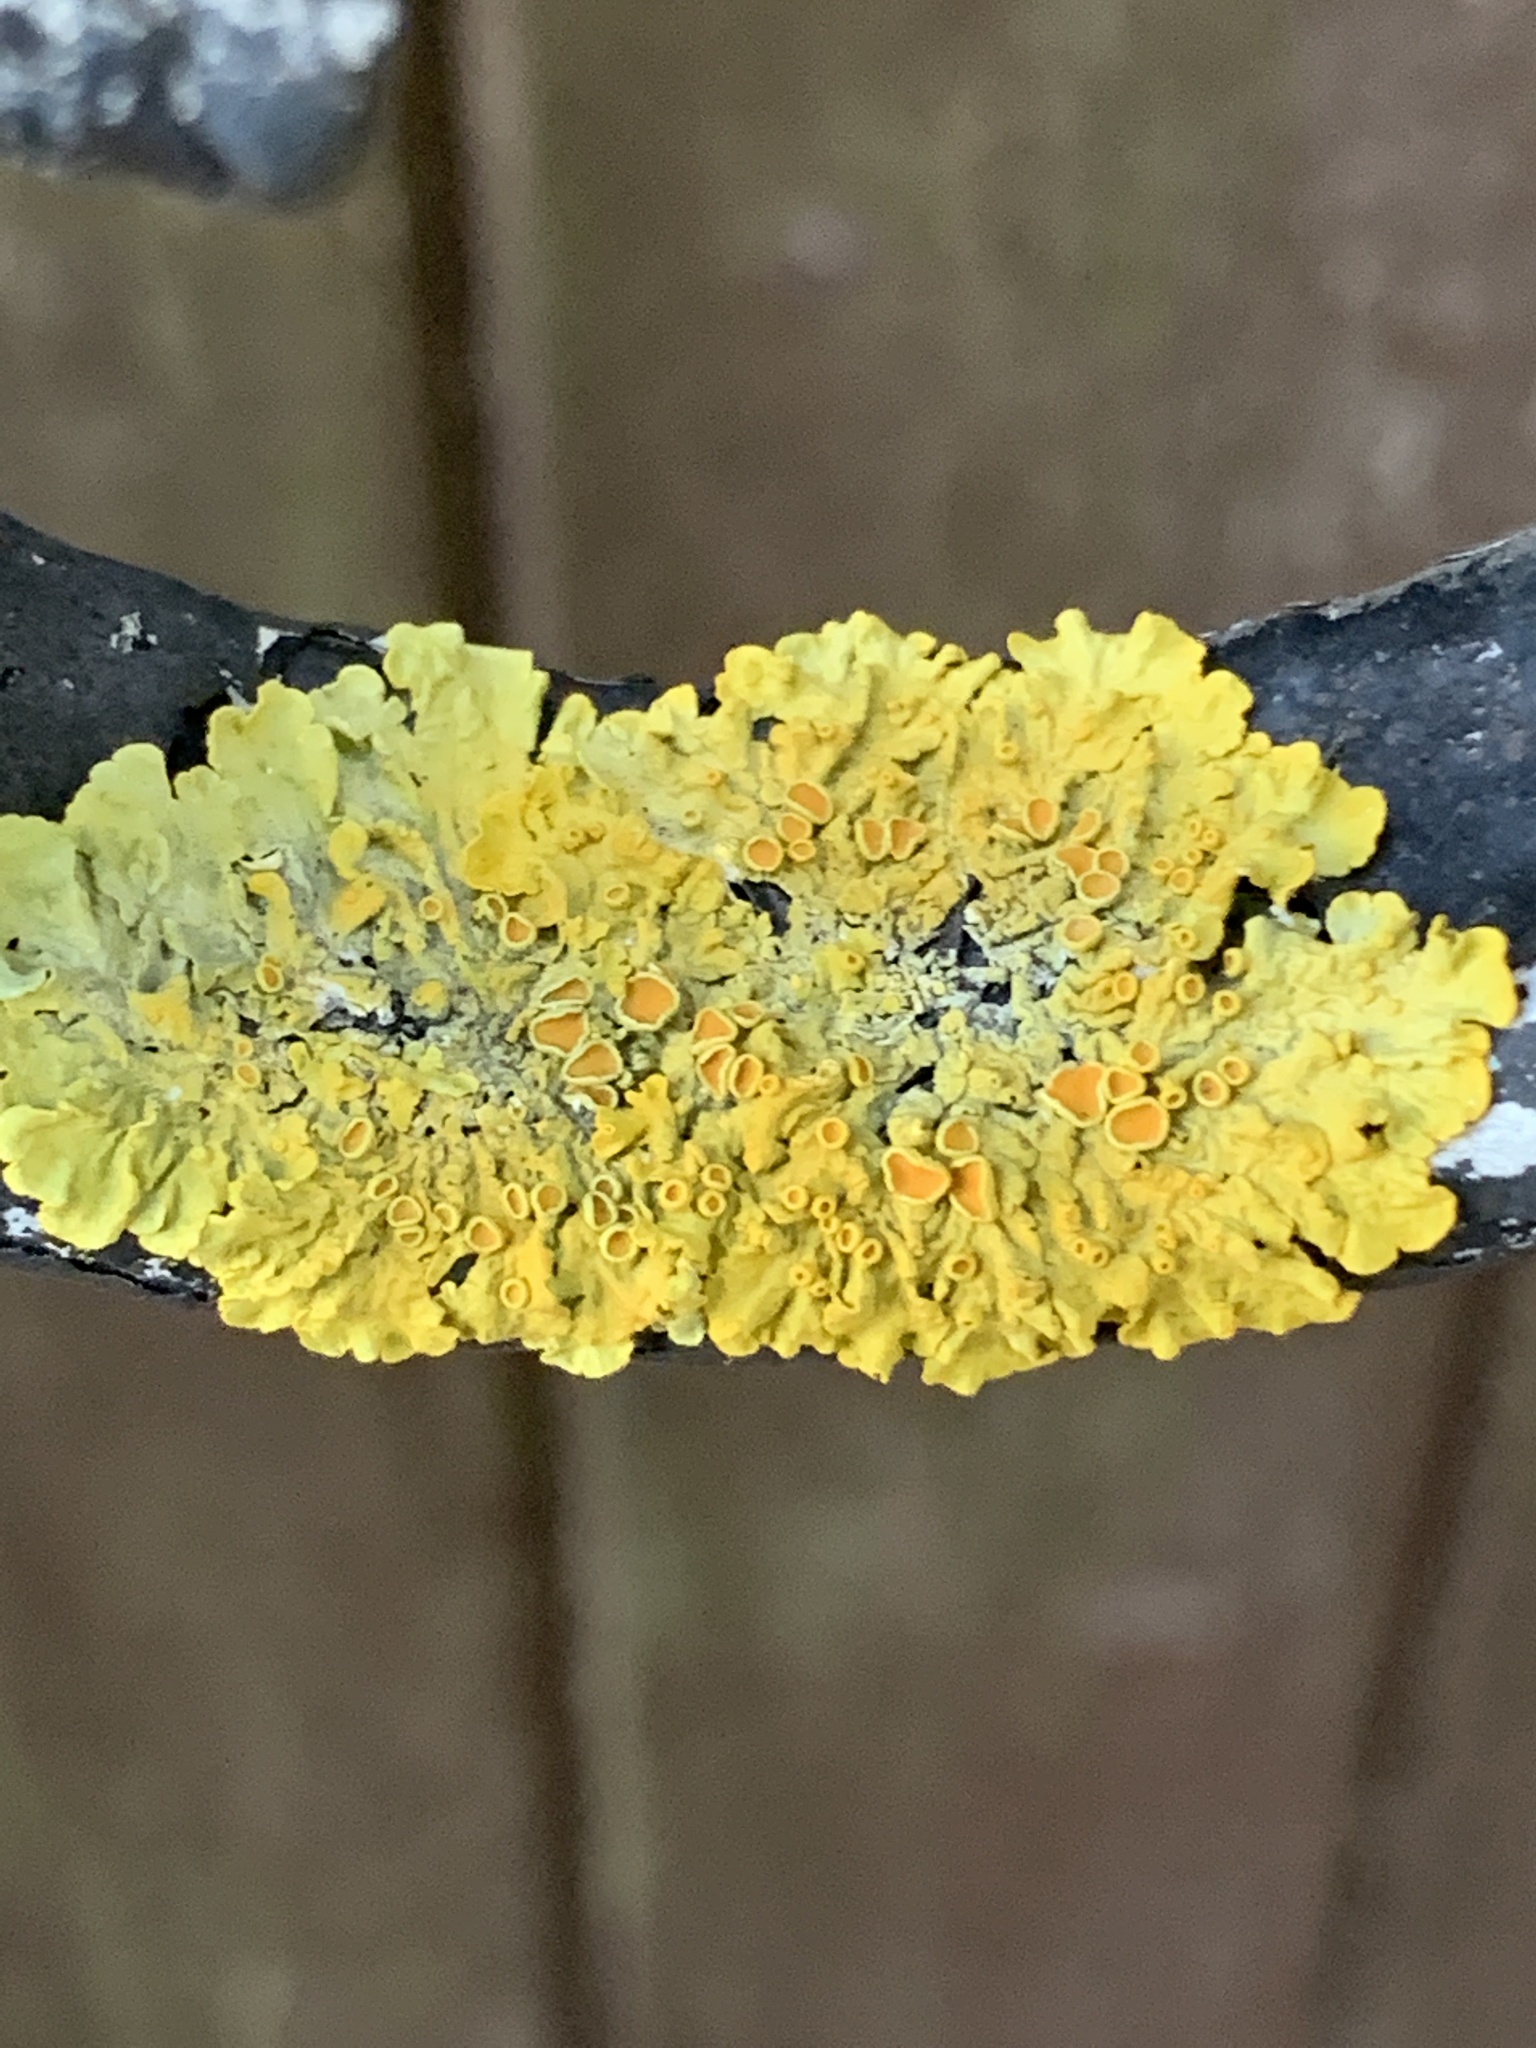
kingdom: Fungi
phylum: Ascomycota
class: Lecanoromycetes
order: Teloschistales
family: Teloschistaceae
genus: Xanthoria
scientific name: Xanthoria parietina
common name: Common orange lichen
